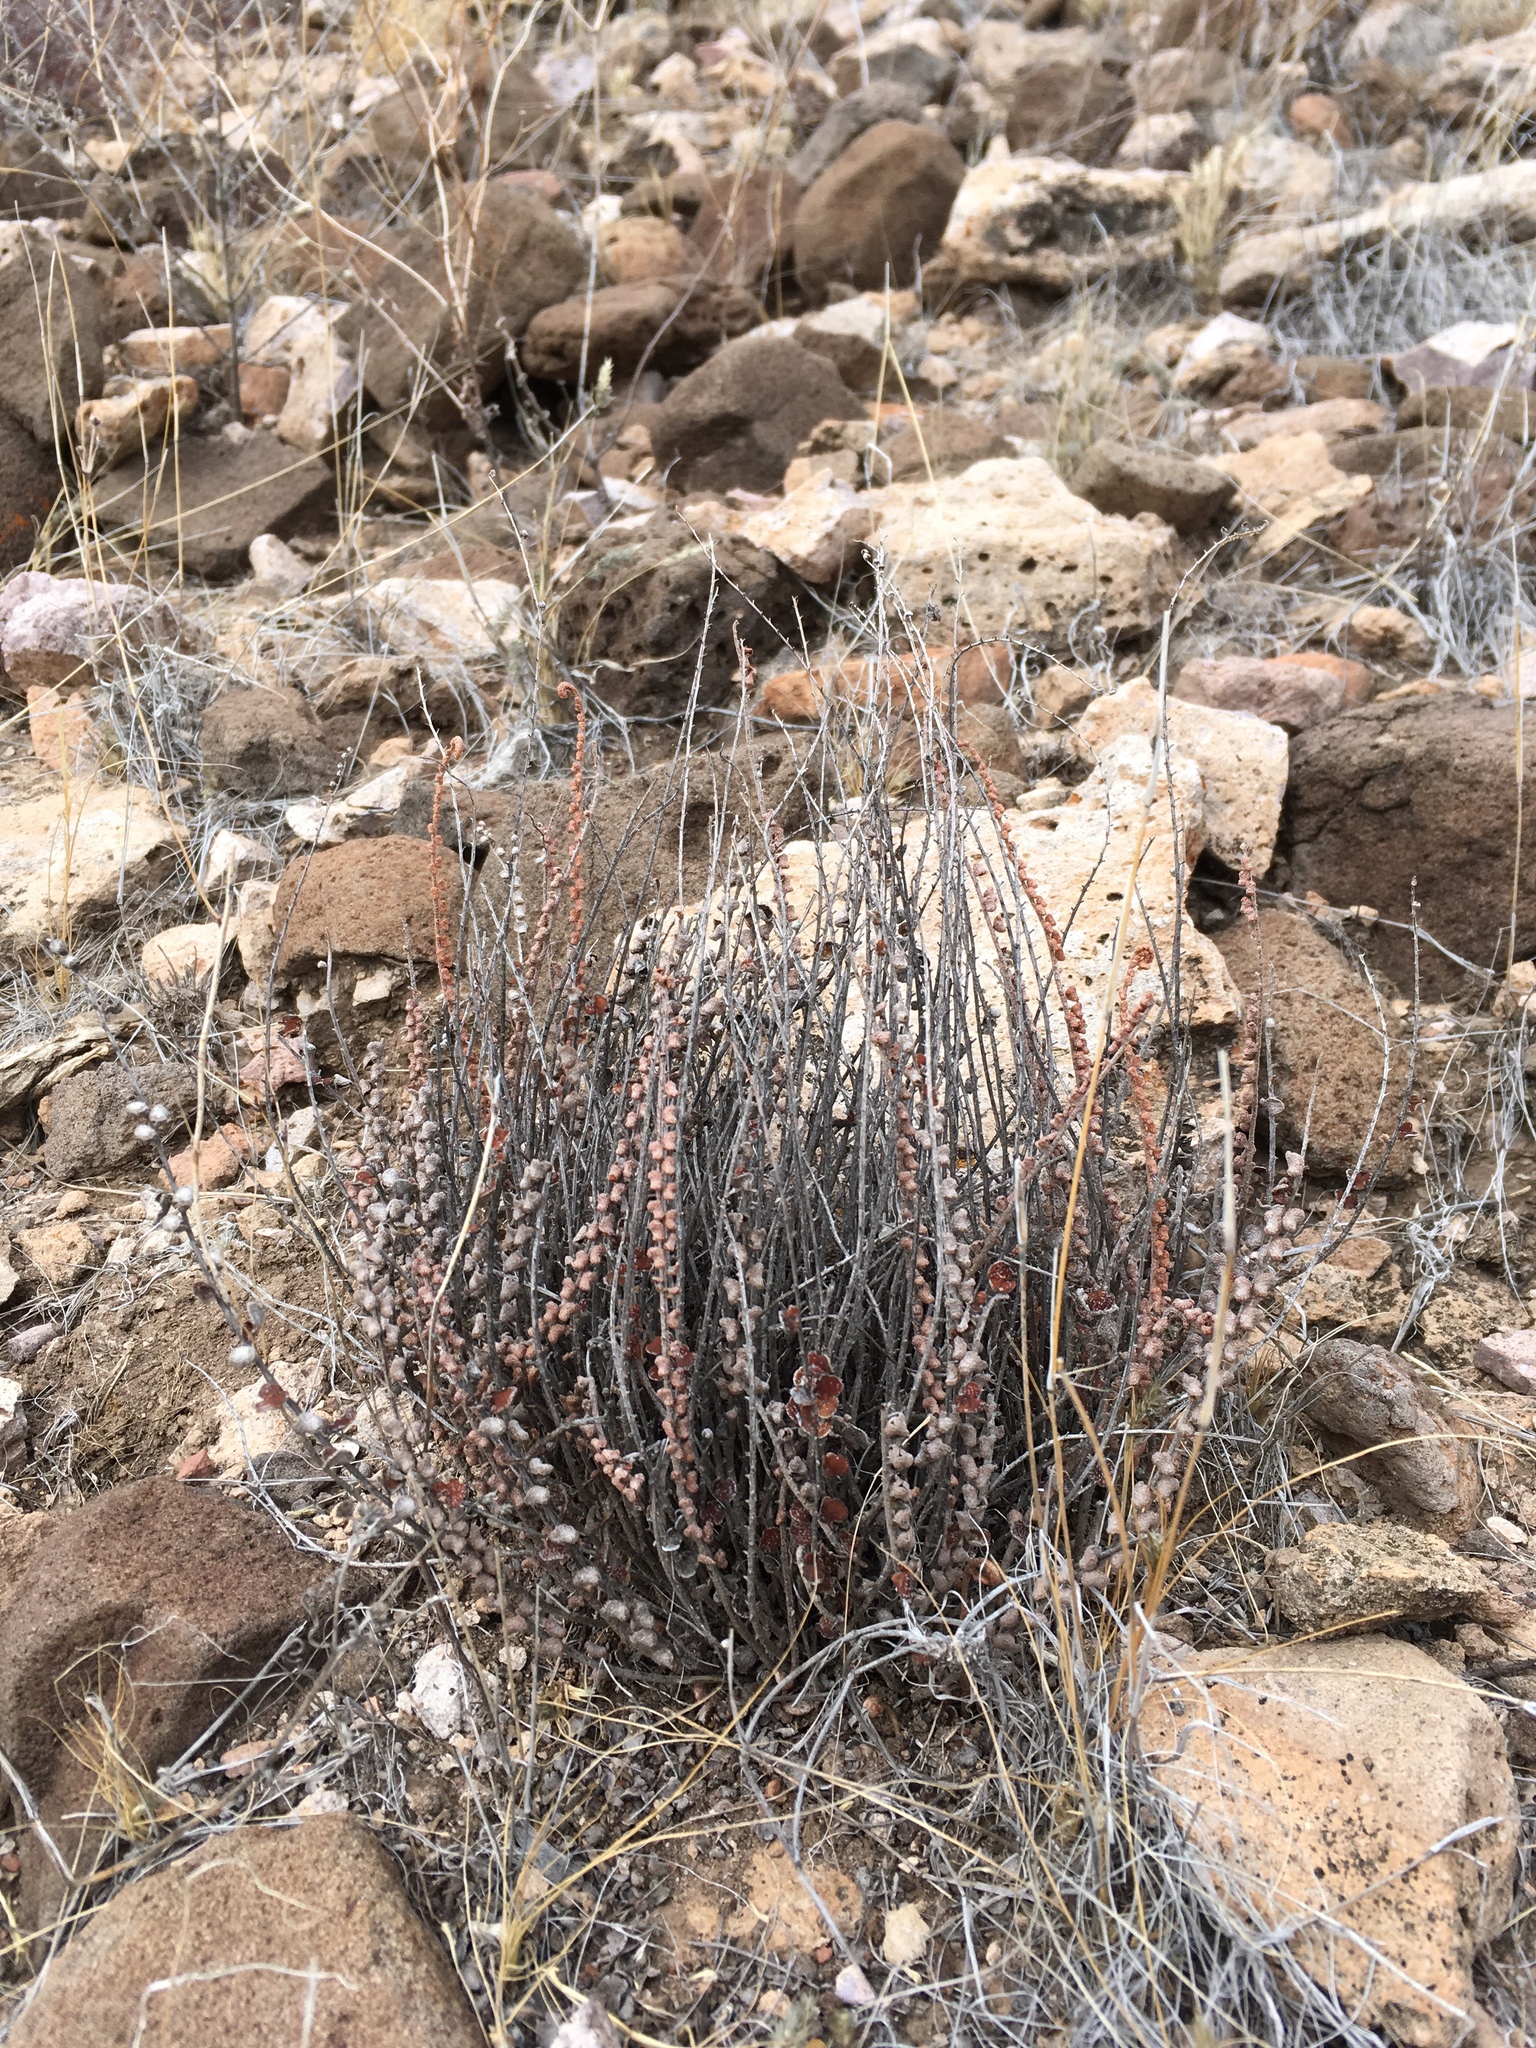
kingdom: Plantae
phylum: Tracheophyta
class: Polypodiopsida
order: Polypodiales
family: Pteridaceae
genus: Astrolepis
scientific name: Astrolepis cochisensis
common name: Scaly cloak fern
